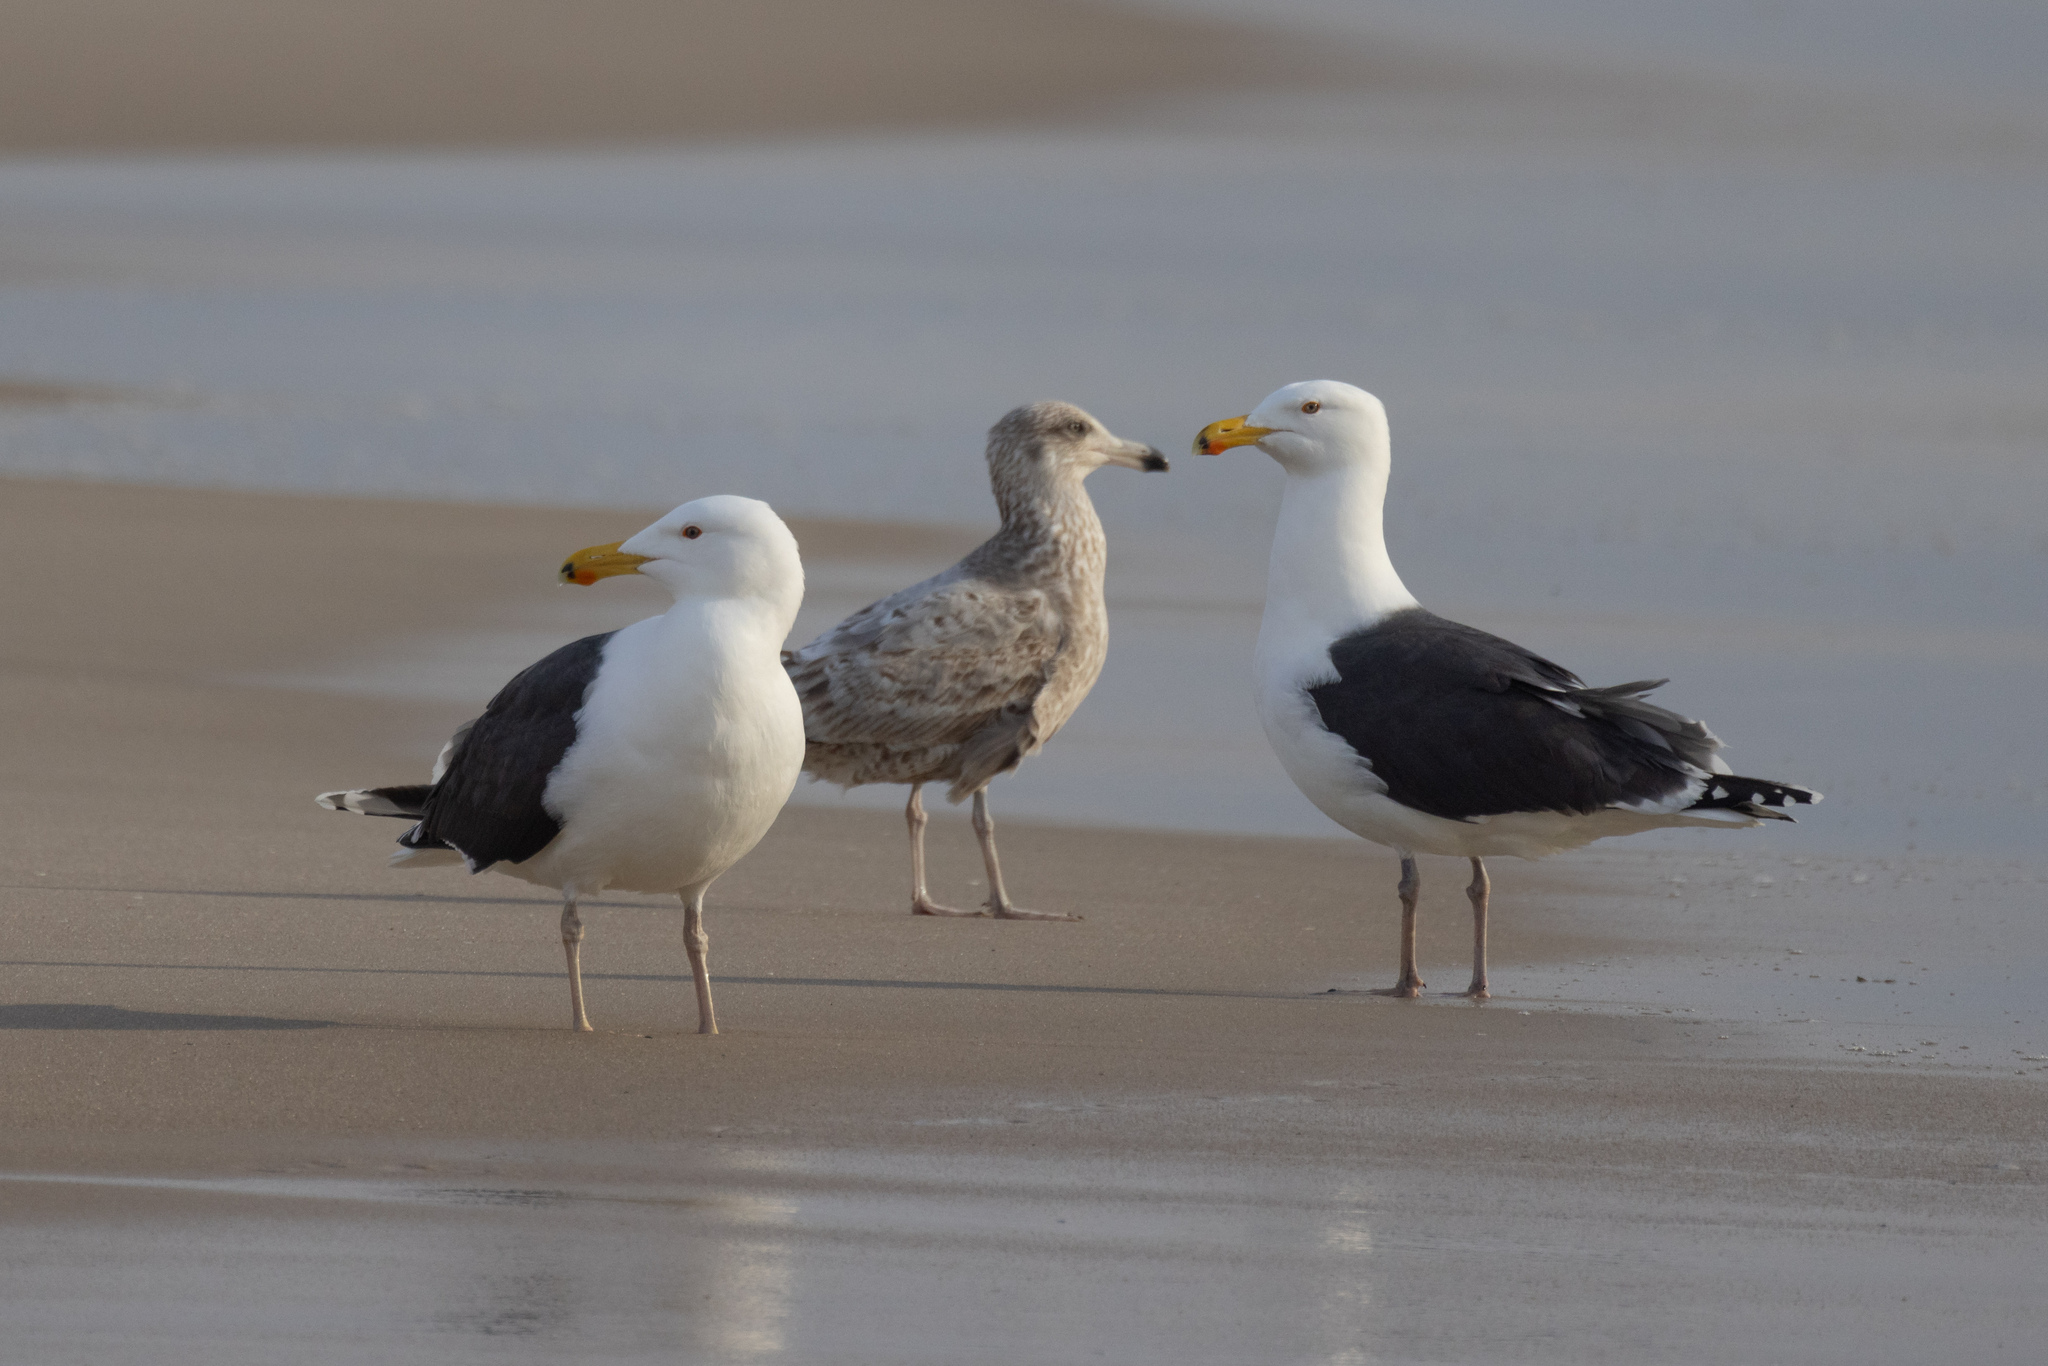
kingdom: Animalia
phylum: Chordata
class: Aves
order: Charadriiformes
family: Laridae
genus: Larus
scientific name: Larus marinus
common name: Great black-backed gull
